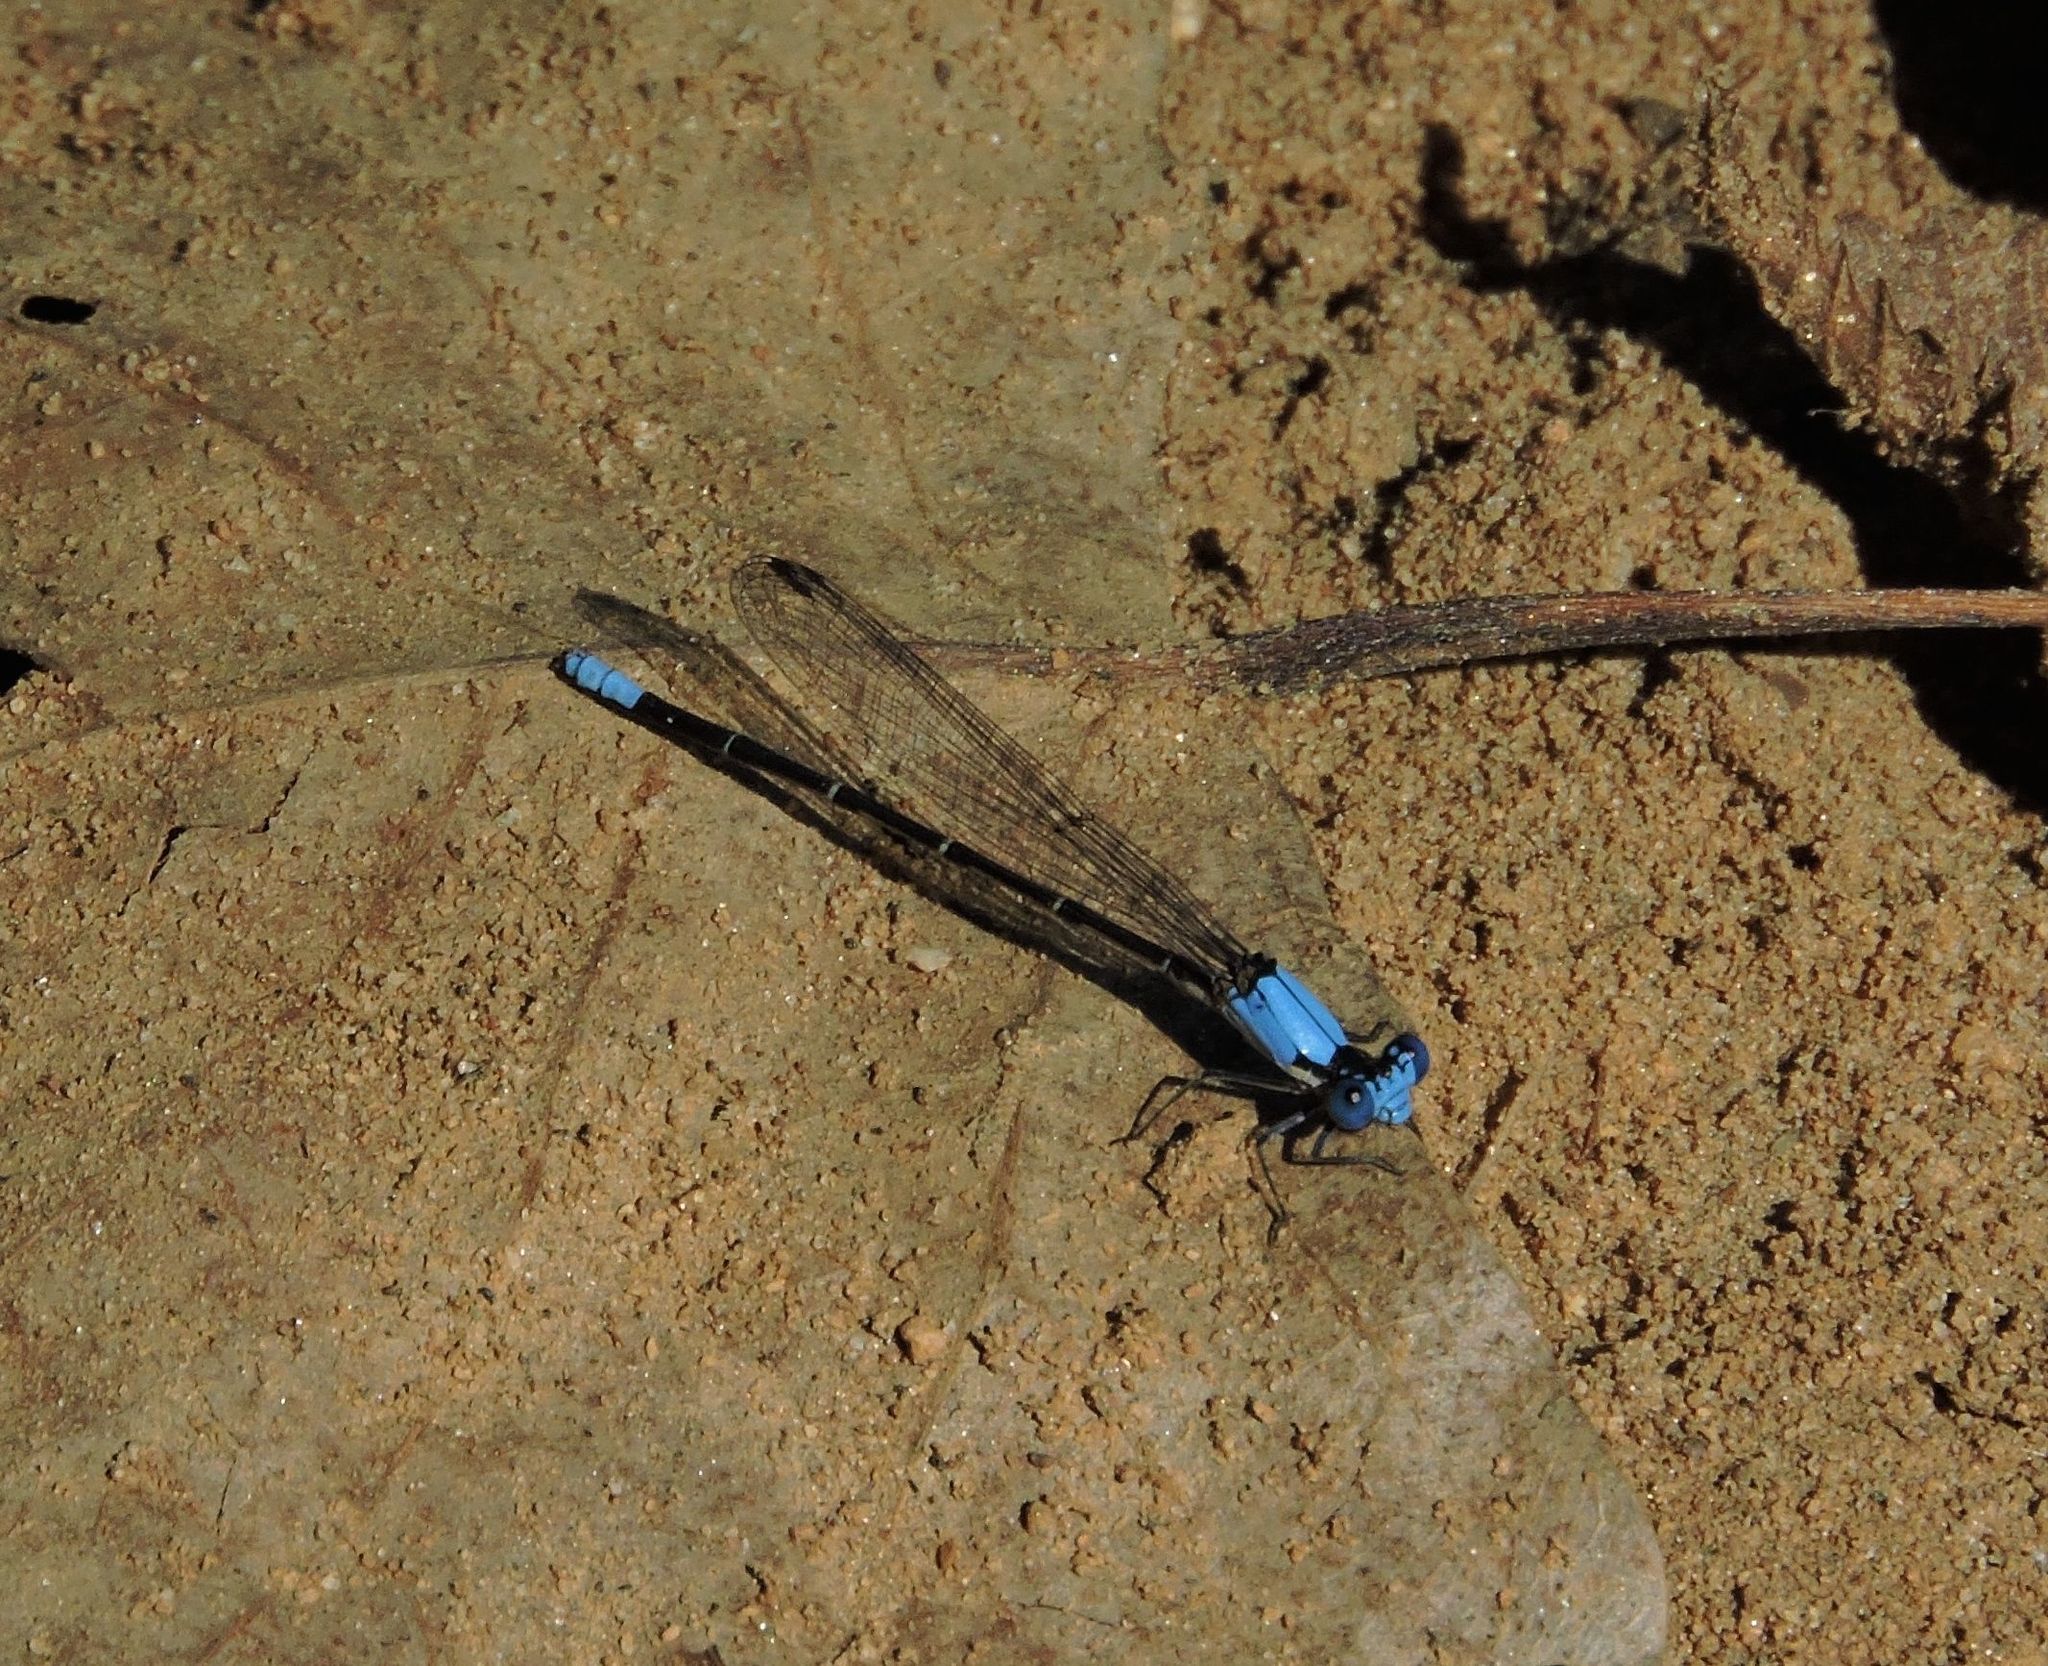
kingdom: Animalia
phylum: Arthropoda
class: Insecta
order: Odonata
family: Coenagrionidae
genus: Argia
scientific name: Argia apicalis
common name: Blue-fronted dancer
